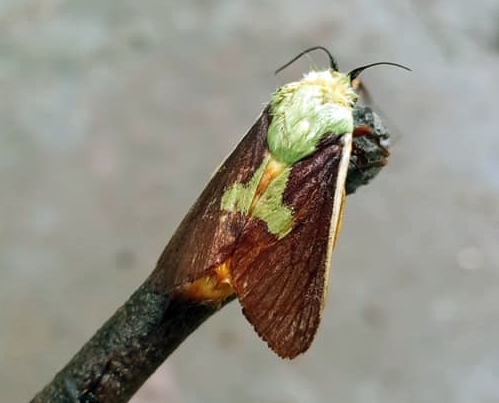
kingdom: Animalia
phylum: Arthropoda
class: Insecta
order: Lepidoptera
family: Limacodidae
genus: Stroter
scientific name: Stroter dukei
